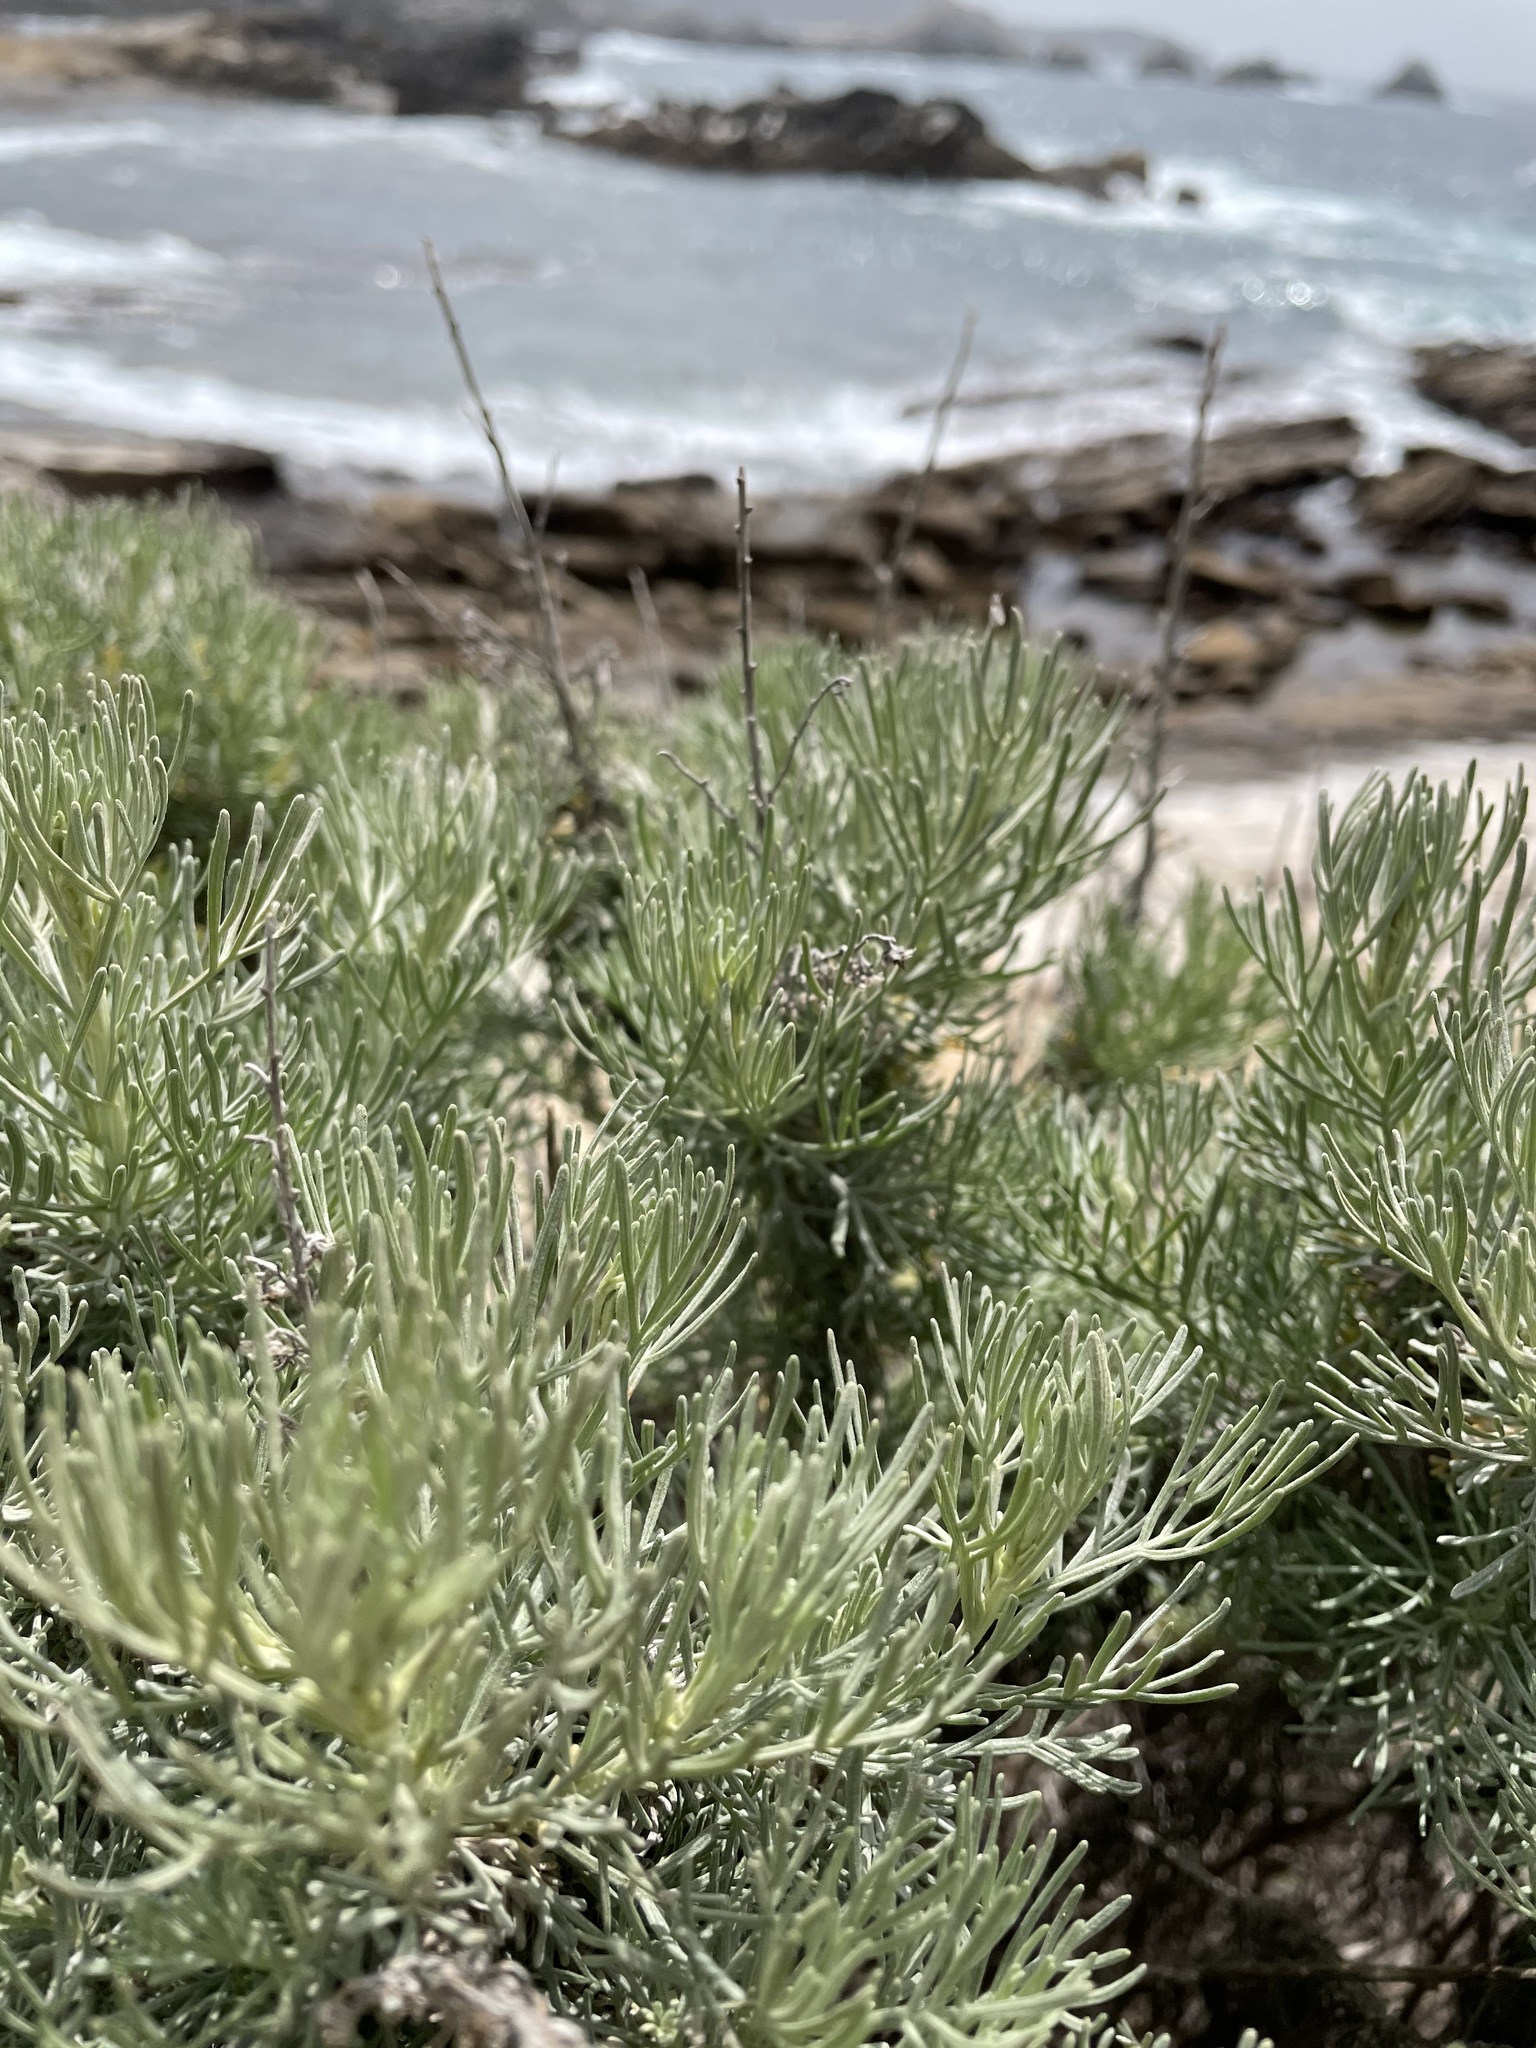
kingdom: Plantae
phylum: Tracheophyta
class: Magnoliopsida
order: Asterales
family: Asteraceae
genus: Artemisia
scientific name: Artemisia californica
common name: California sagebrush
